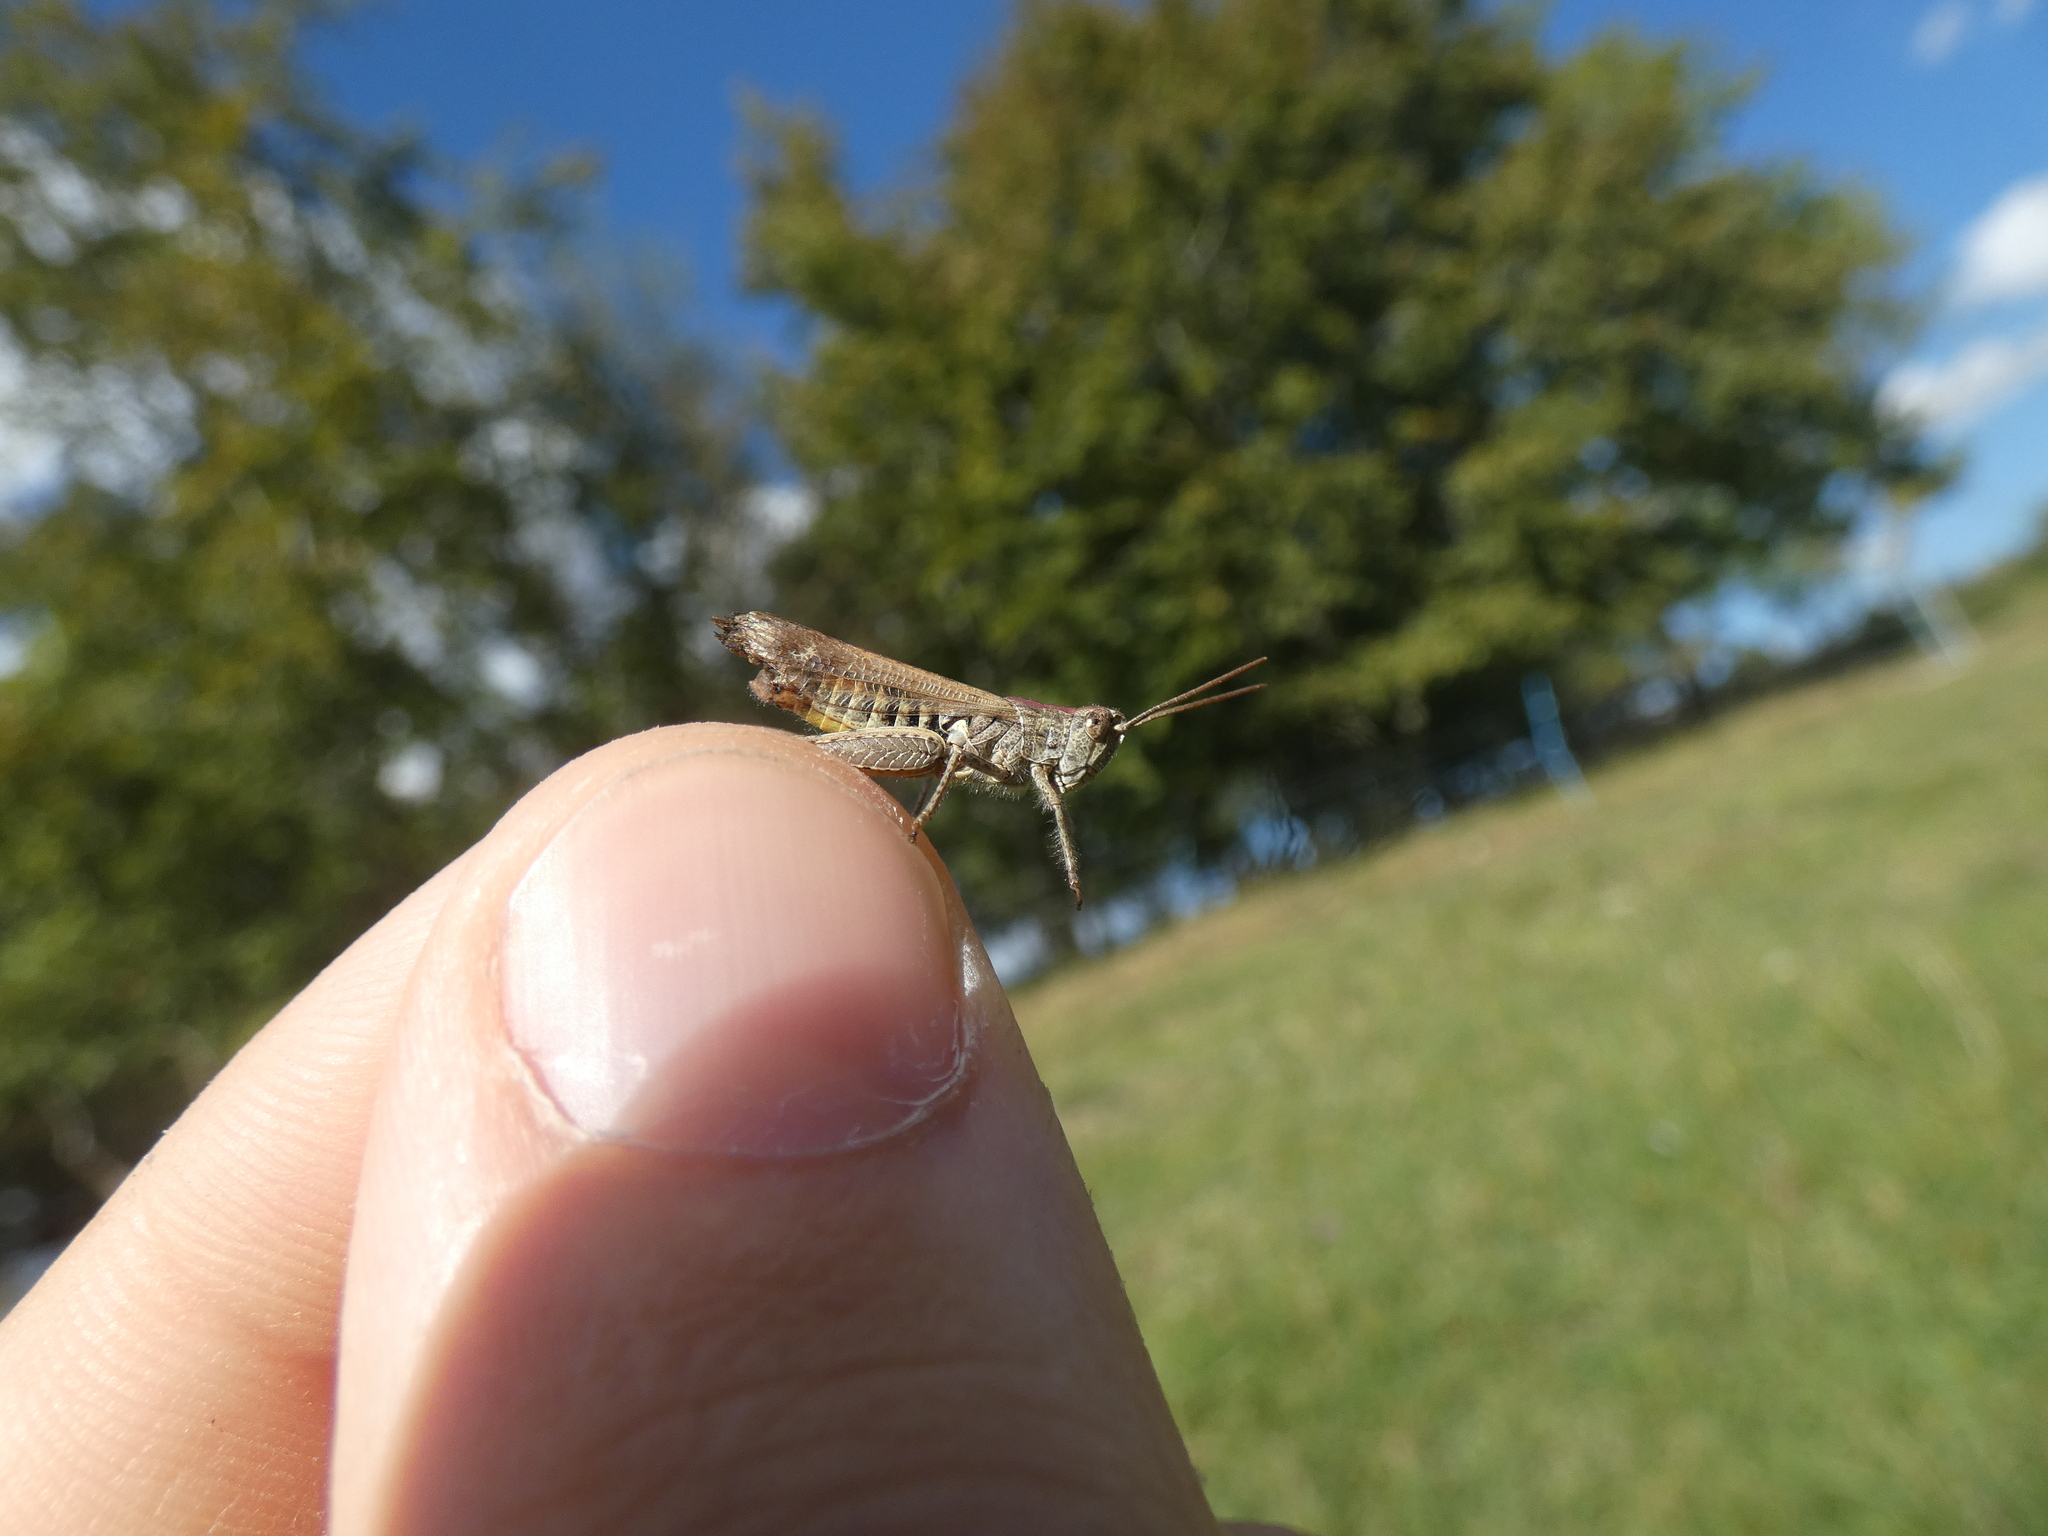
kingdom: Animalia
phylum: Arthropoda
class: Insecta
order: Orthoptera
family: Acrididae
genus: Chorthippus
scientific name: Chorthippus biguttulus
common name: Bow-winged grasshopper
